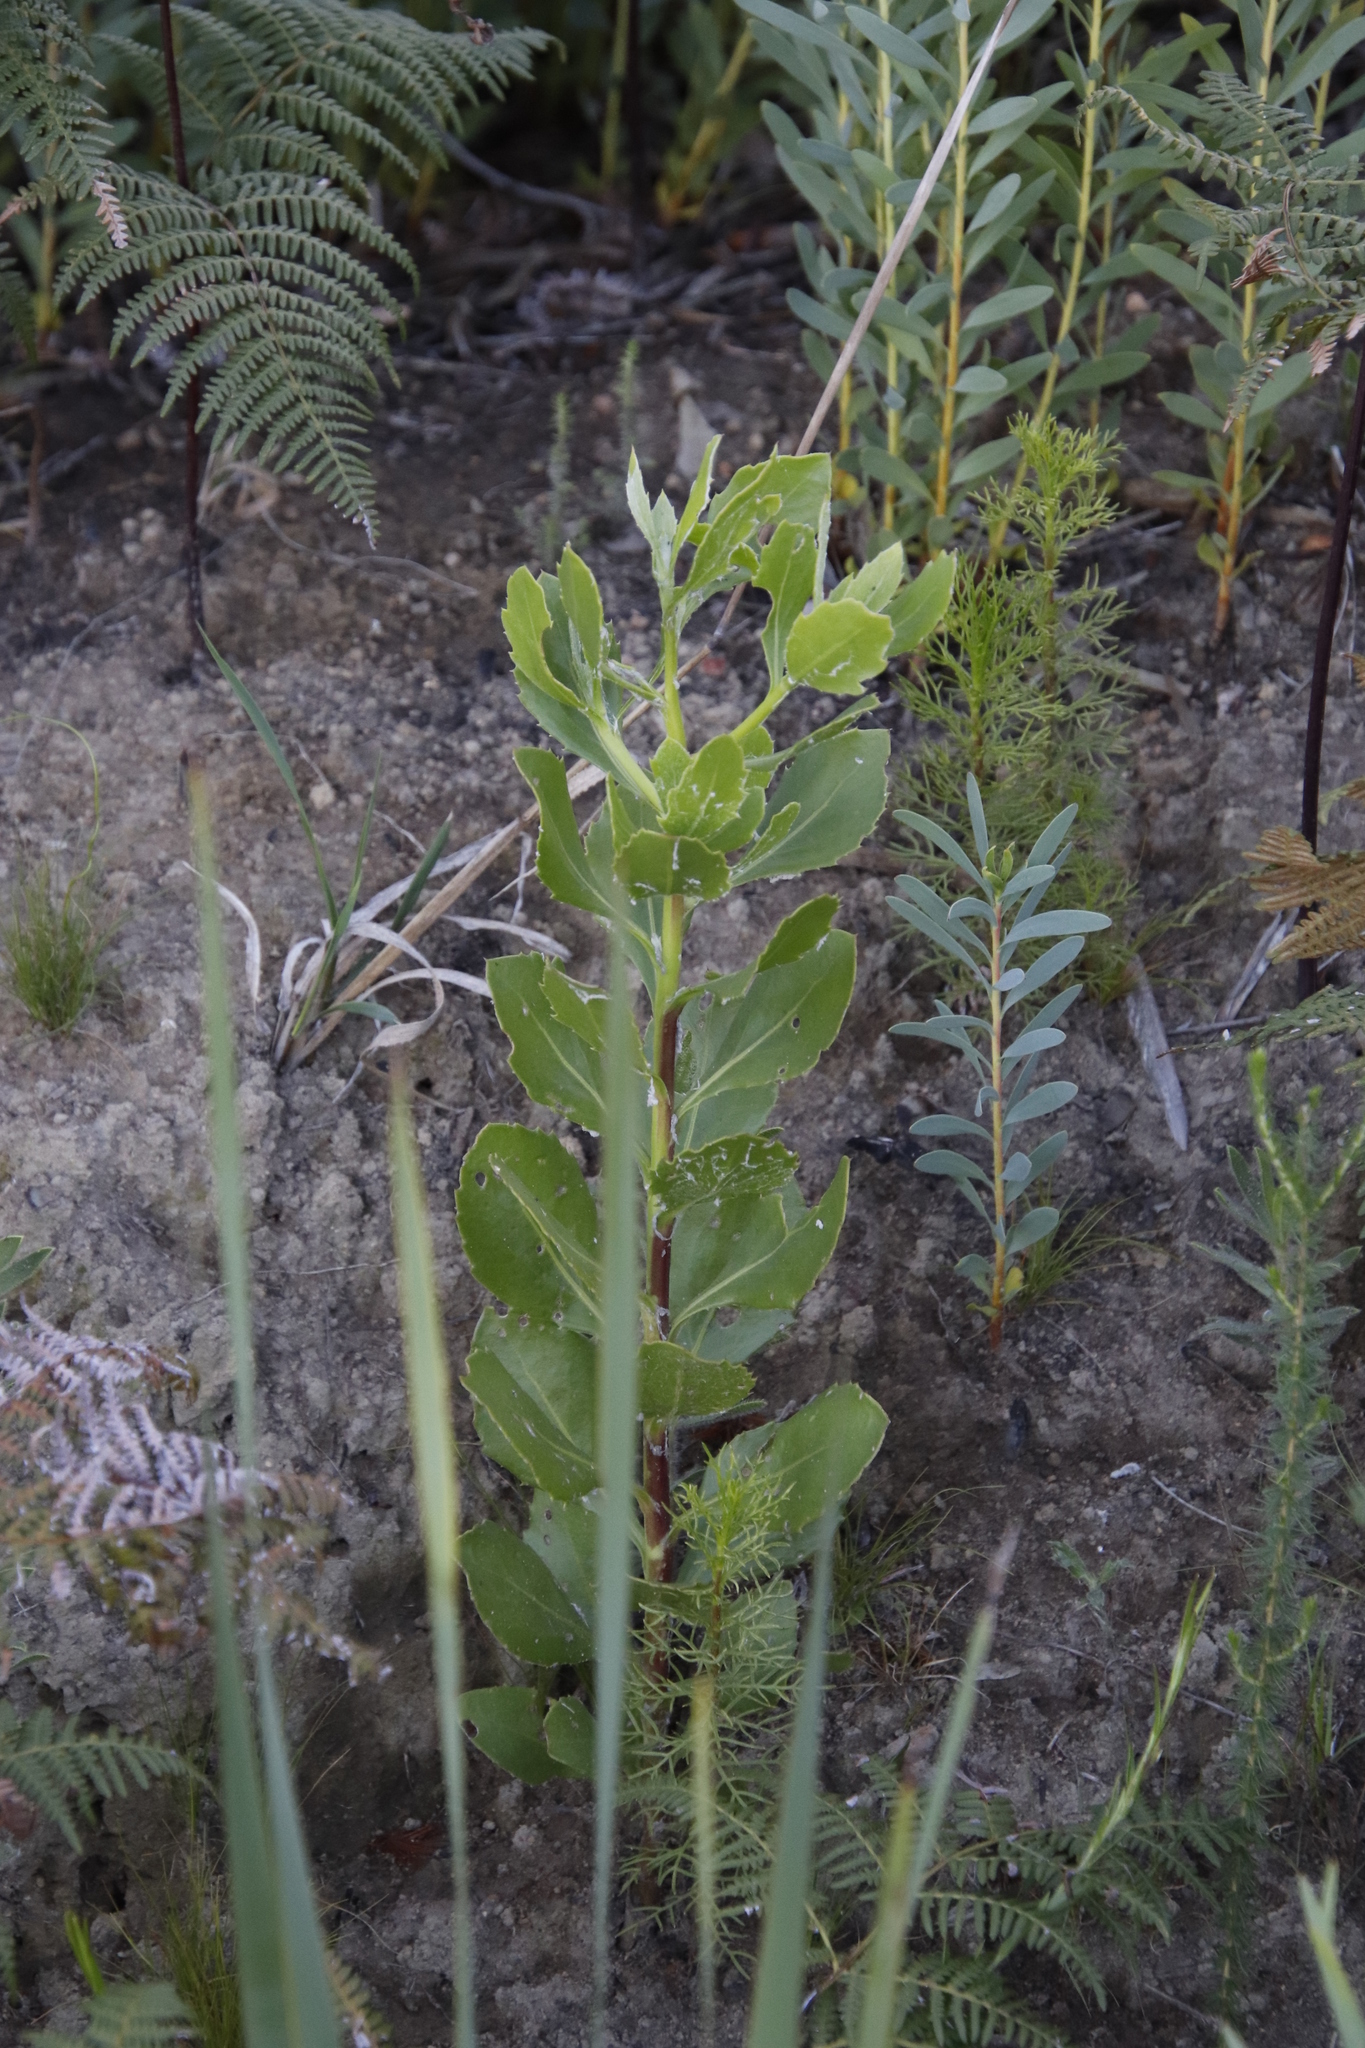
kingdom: Plantae
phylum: Tracheophyta
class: Magnoliopsida
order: Asterales
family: Asteraceae
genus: Osteospermum
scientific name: Osteospermum moniliferum
